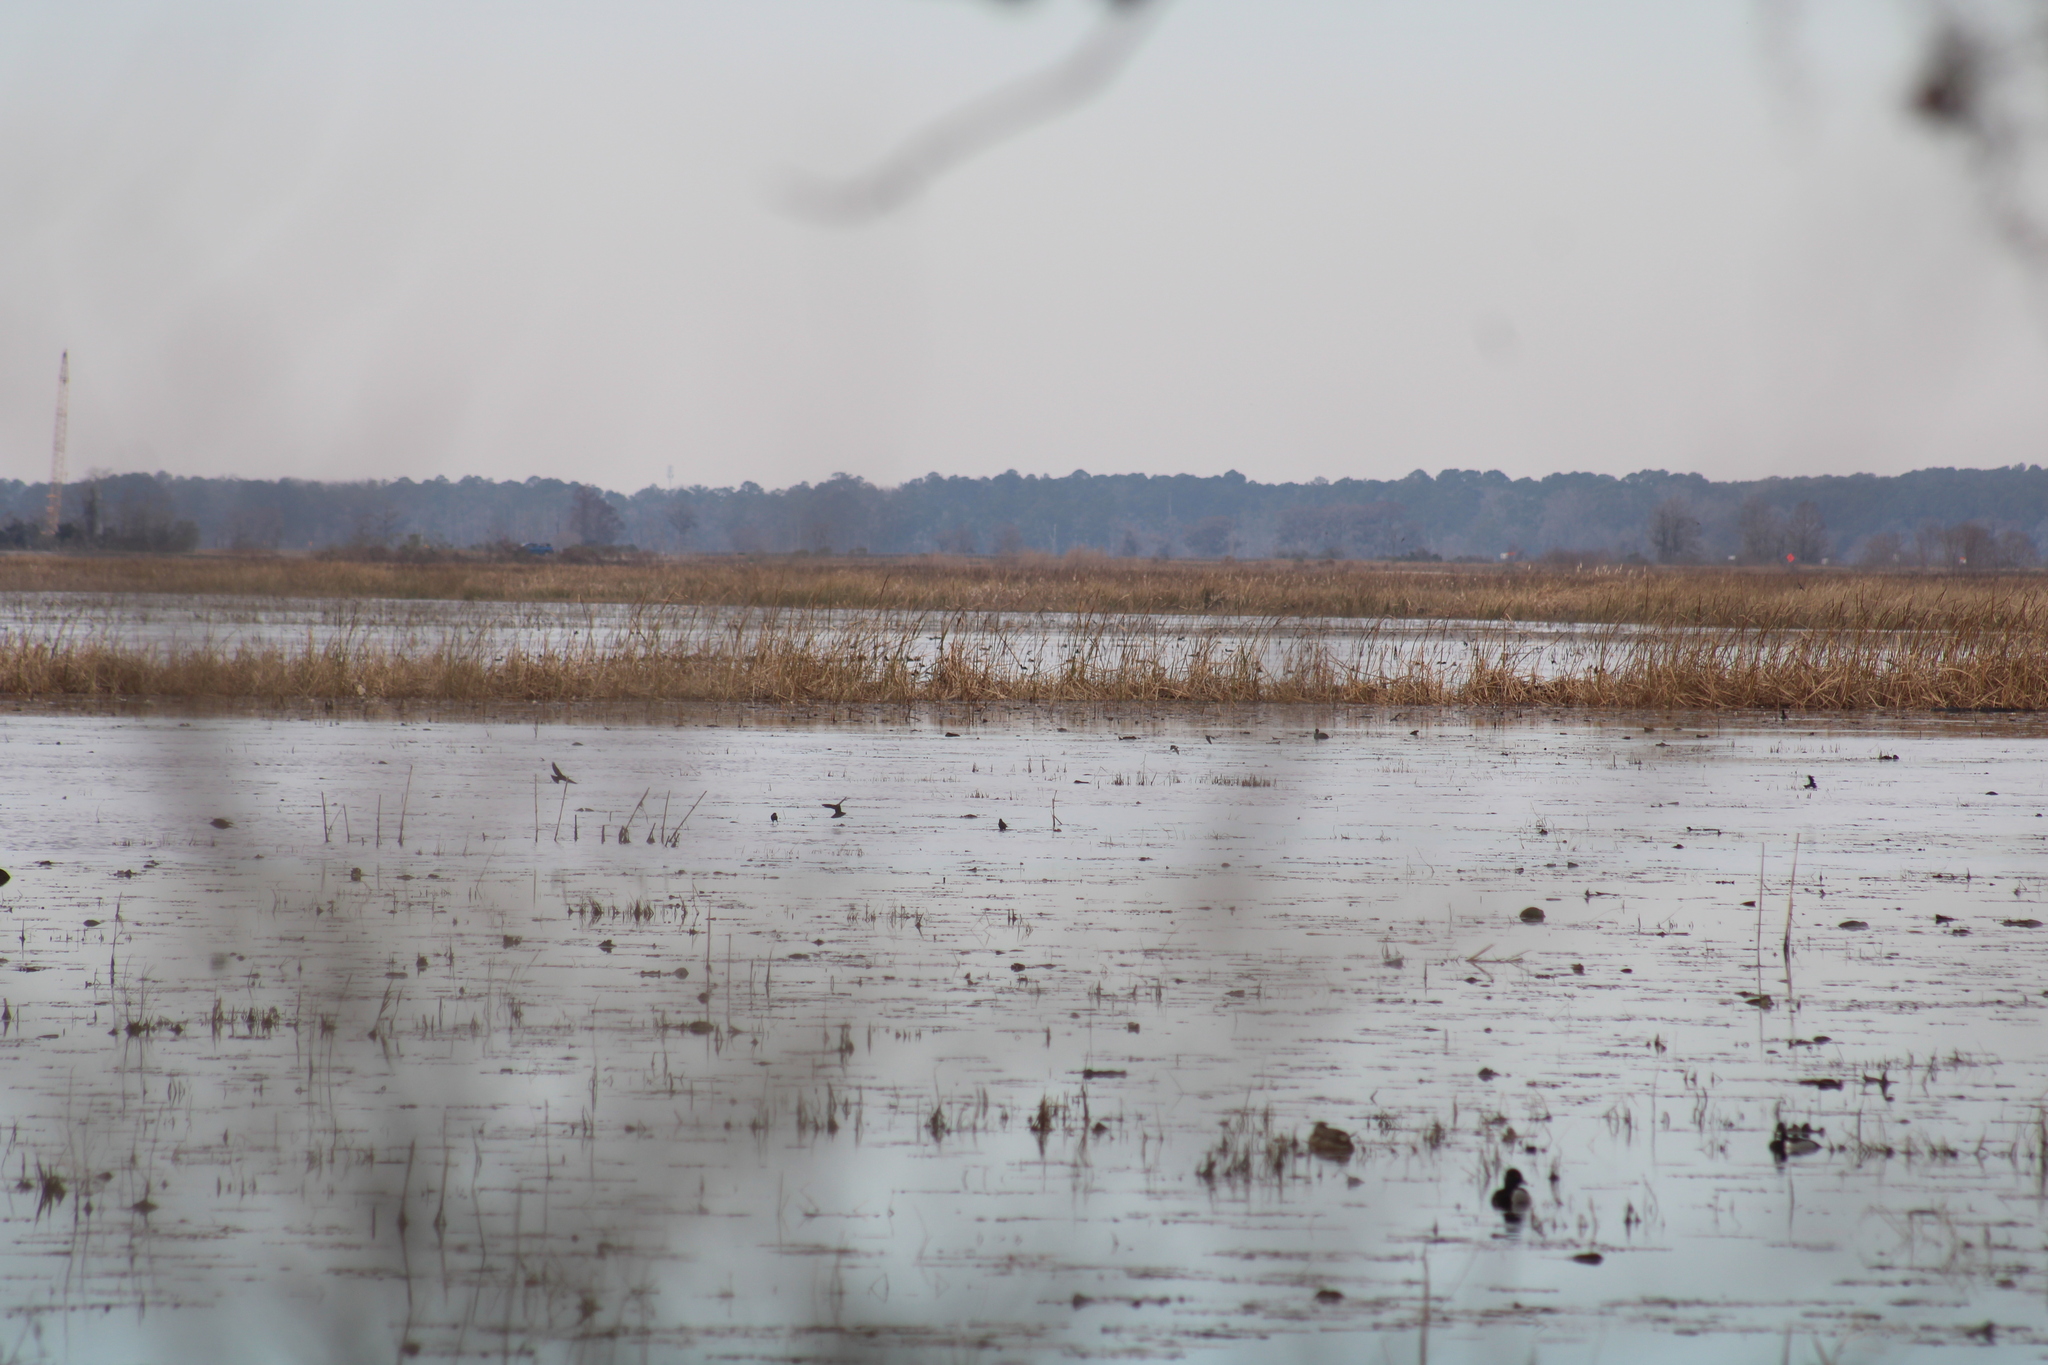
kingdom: Animalia
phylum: Chordata
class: Aves
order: Anseriformes
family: Anatidae
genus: Aythya
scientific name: Aythya collaris
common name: Ring-necked duck
